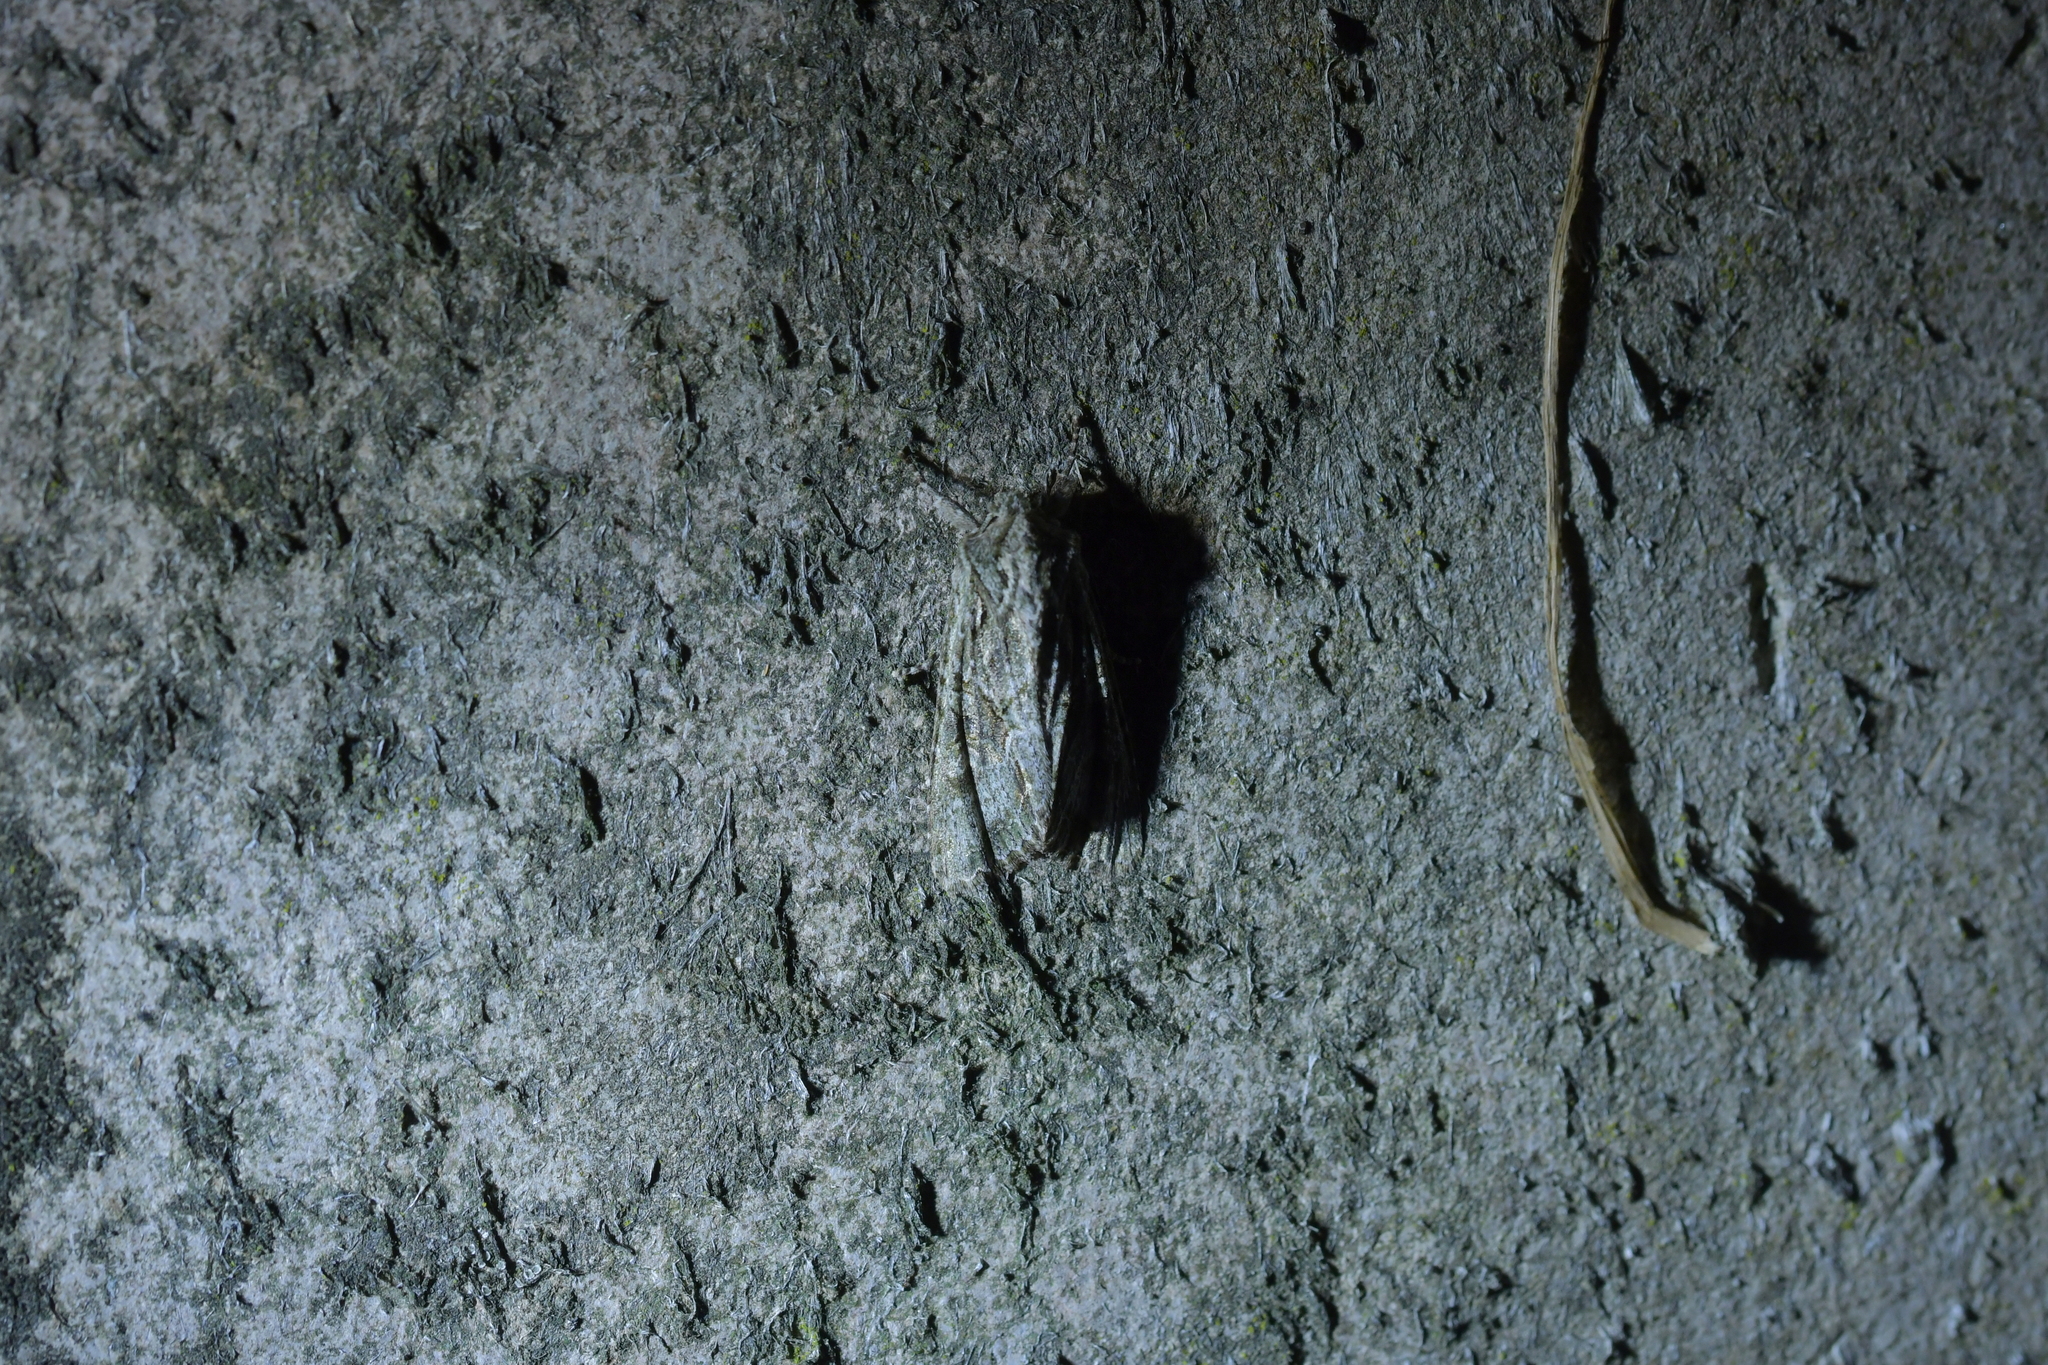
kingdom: Animalia
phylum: Arthropoda
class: Insecta
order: Lepidoptera
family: Noctuidae
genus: Ichneutica
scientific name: Ichneutica mutans
